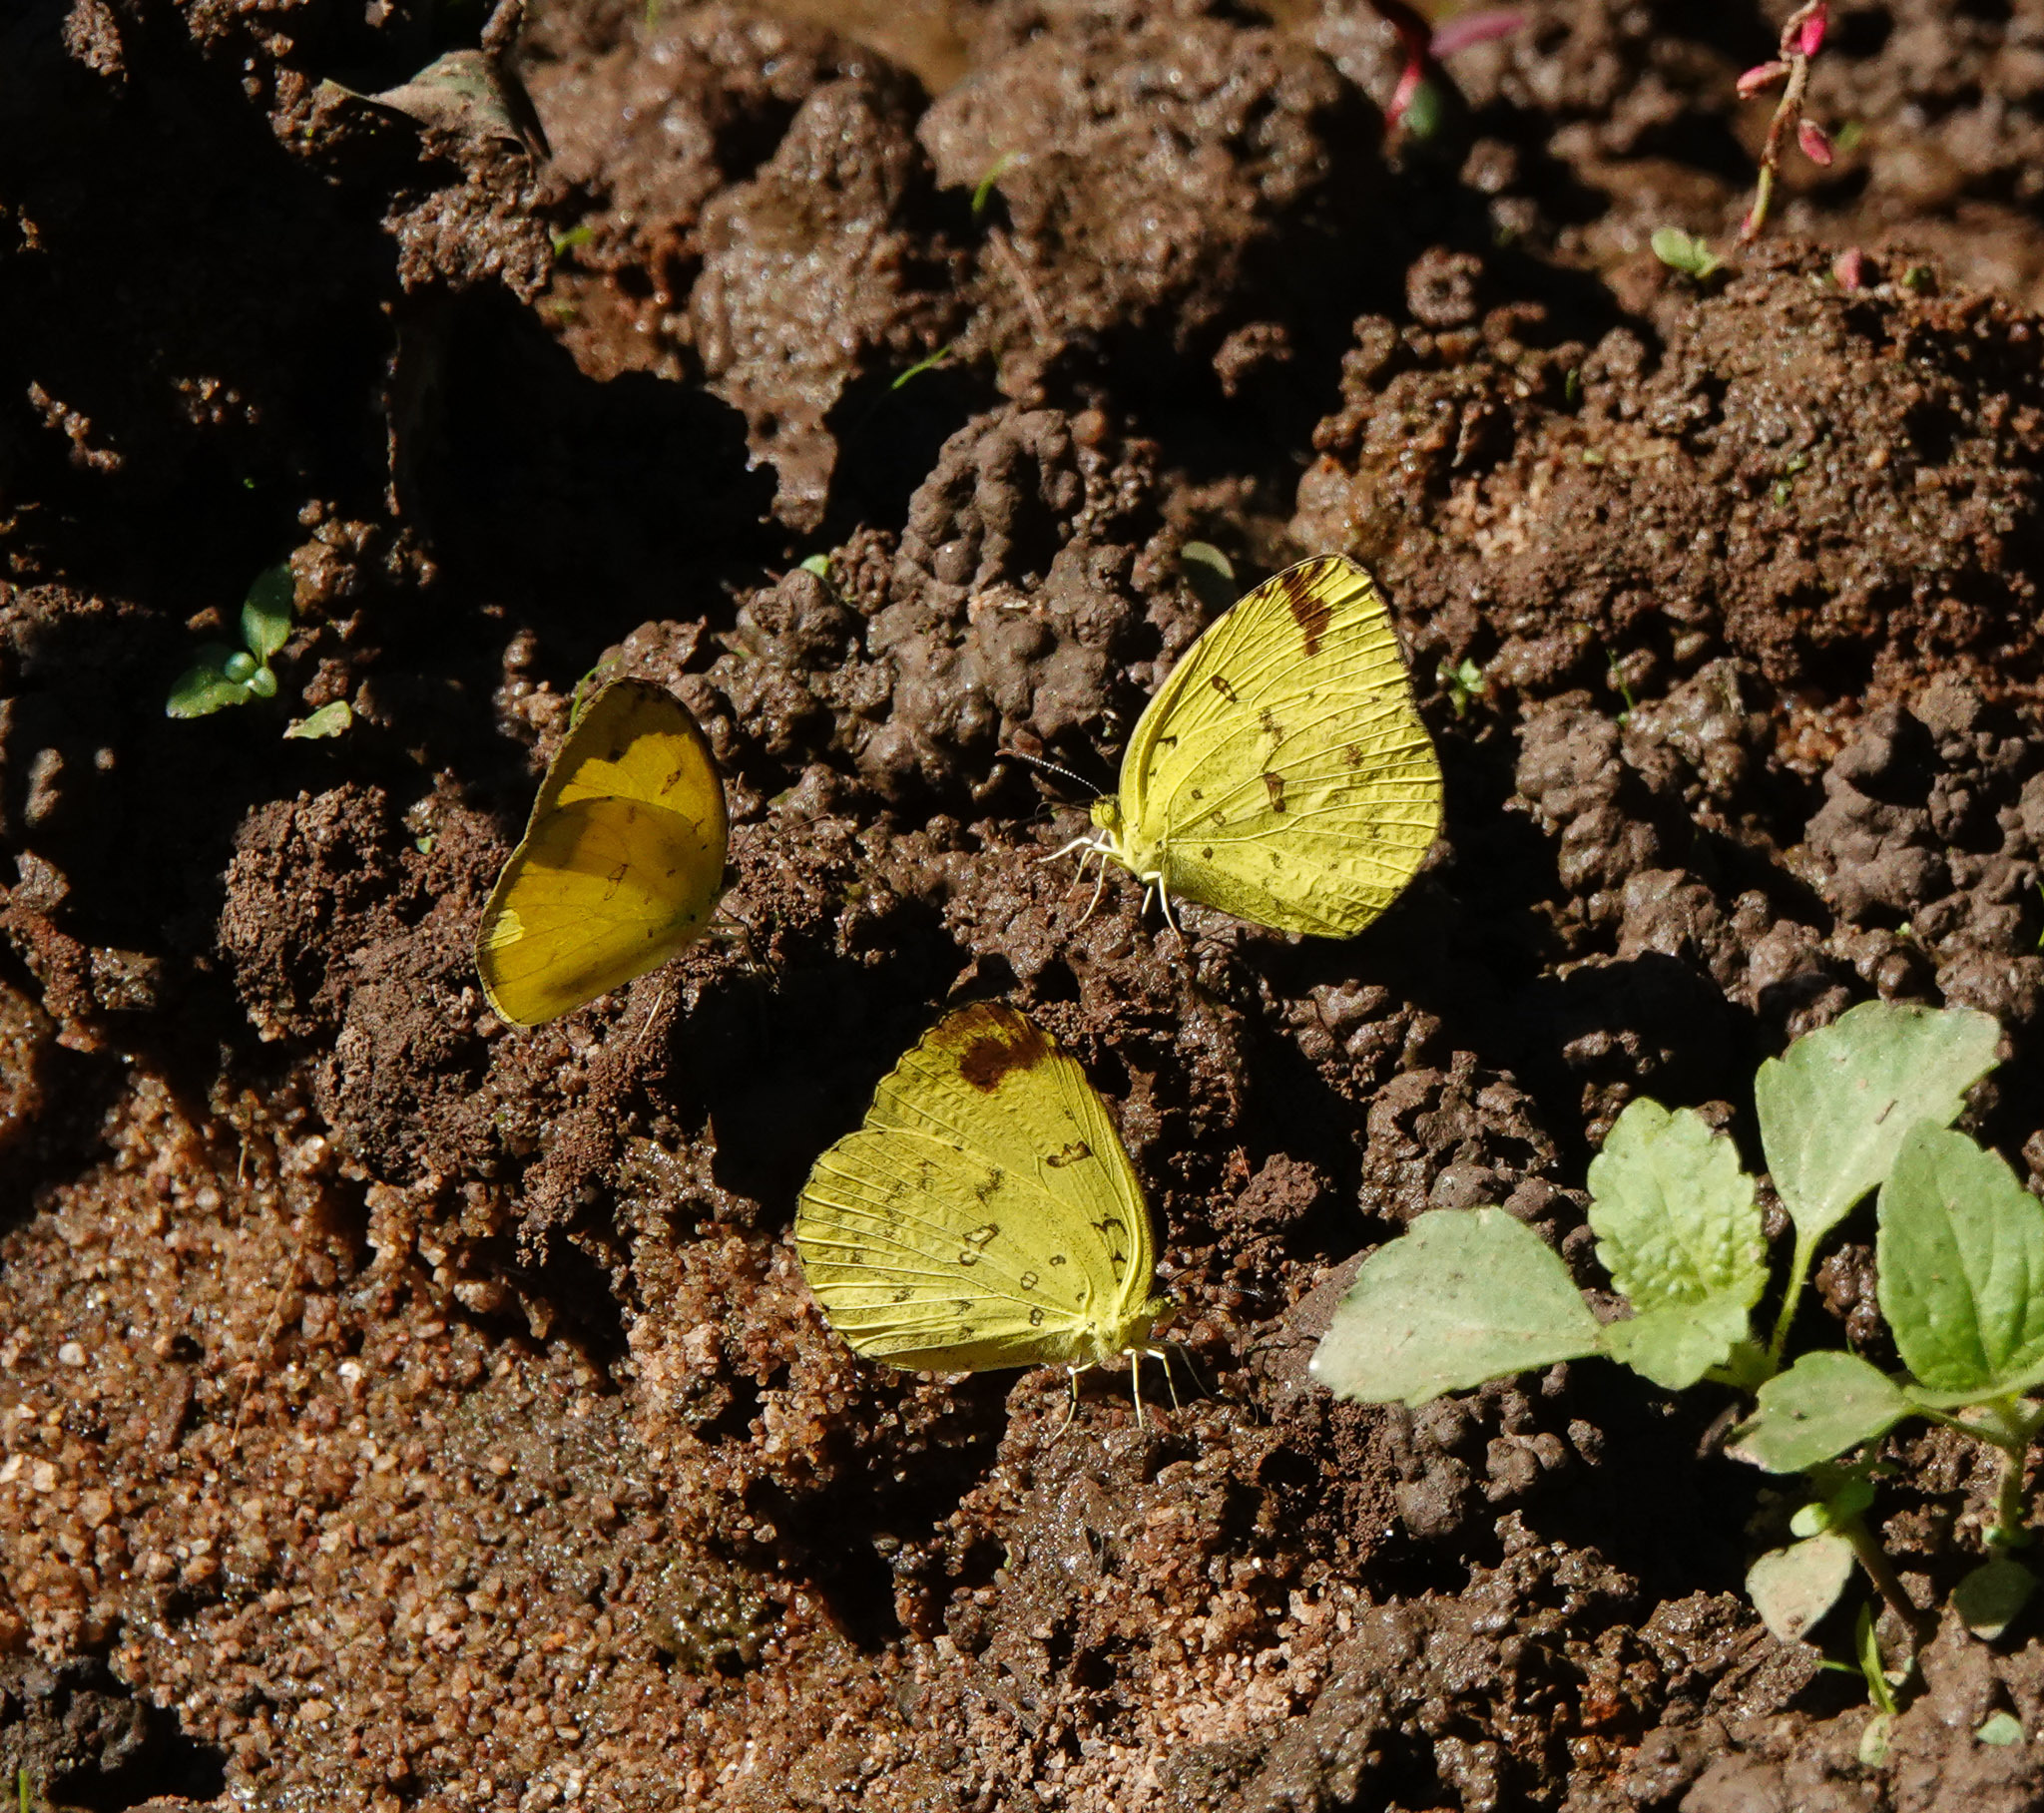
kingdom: Animalia
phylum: Arthropoda
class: Insecta
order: Lepidoptera
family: Pieridae
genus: Eurema
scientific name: Eurema hecabe
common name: Pale grass yellow
